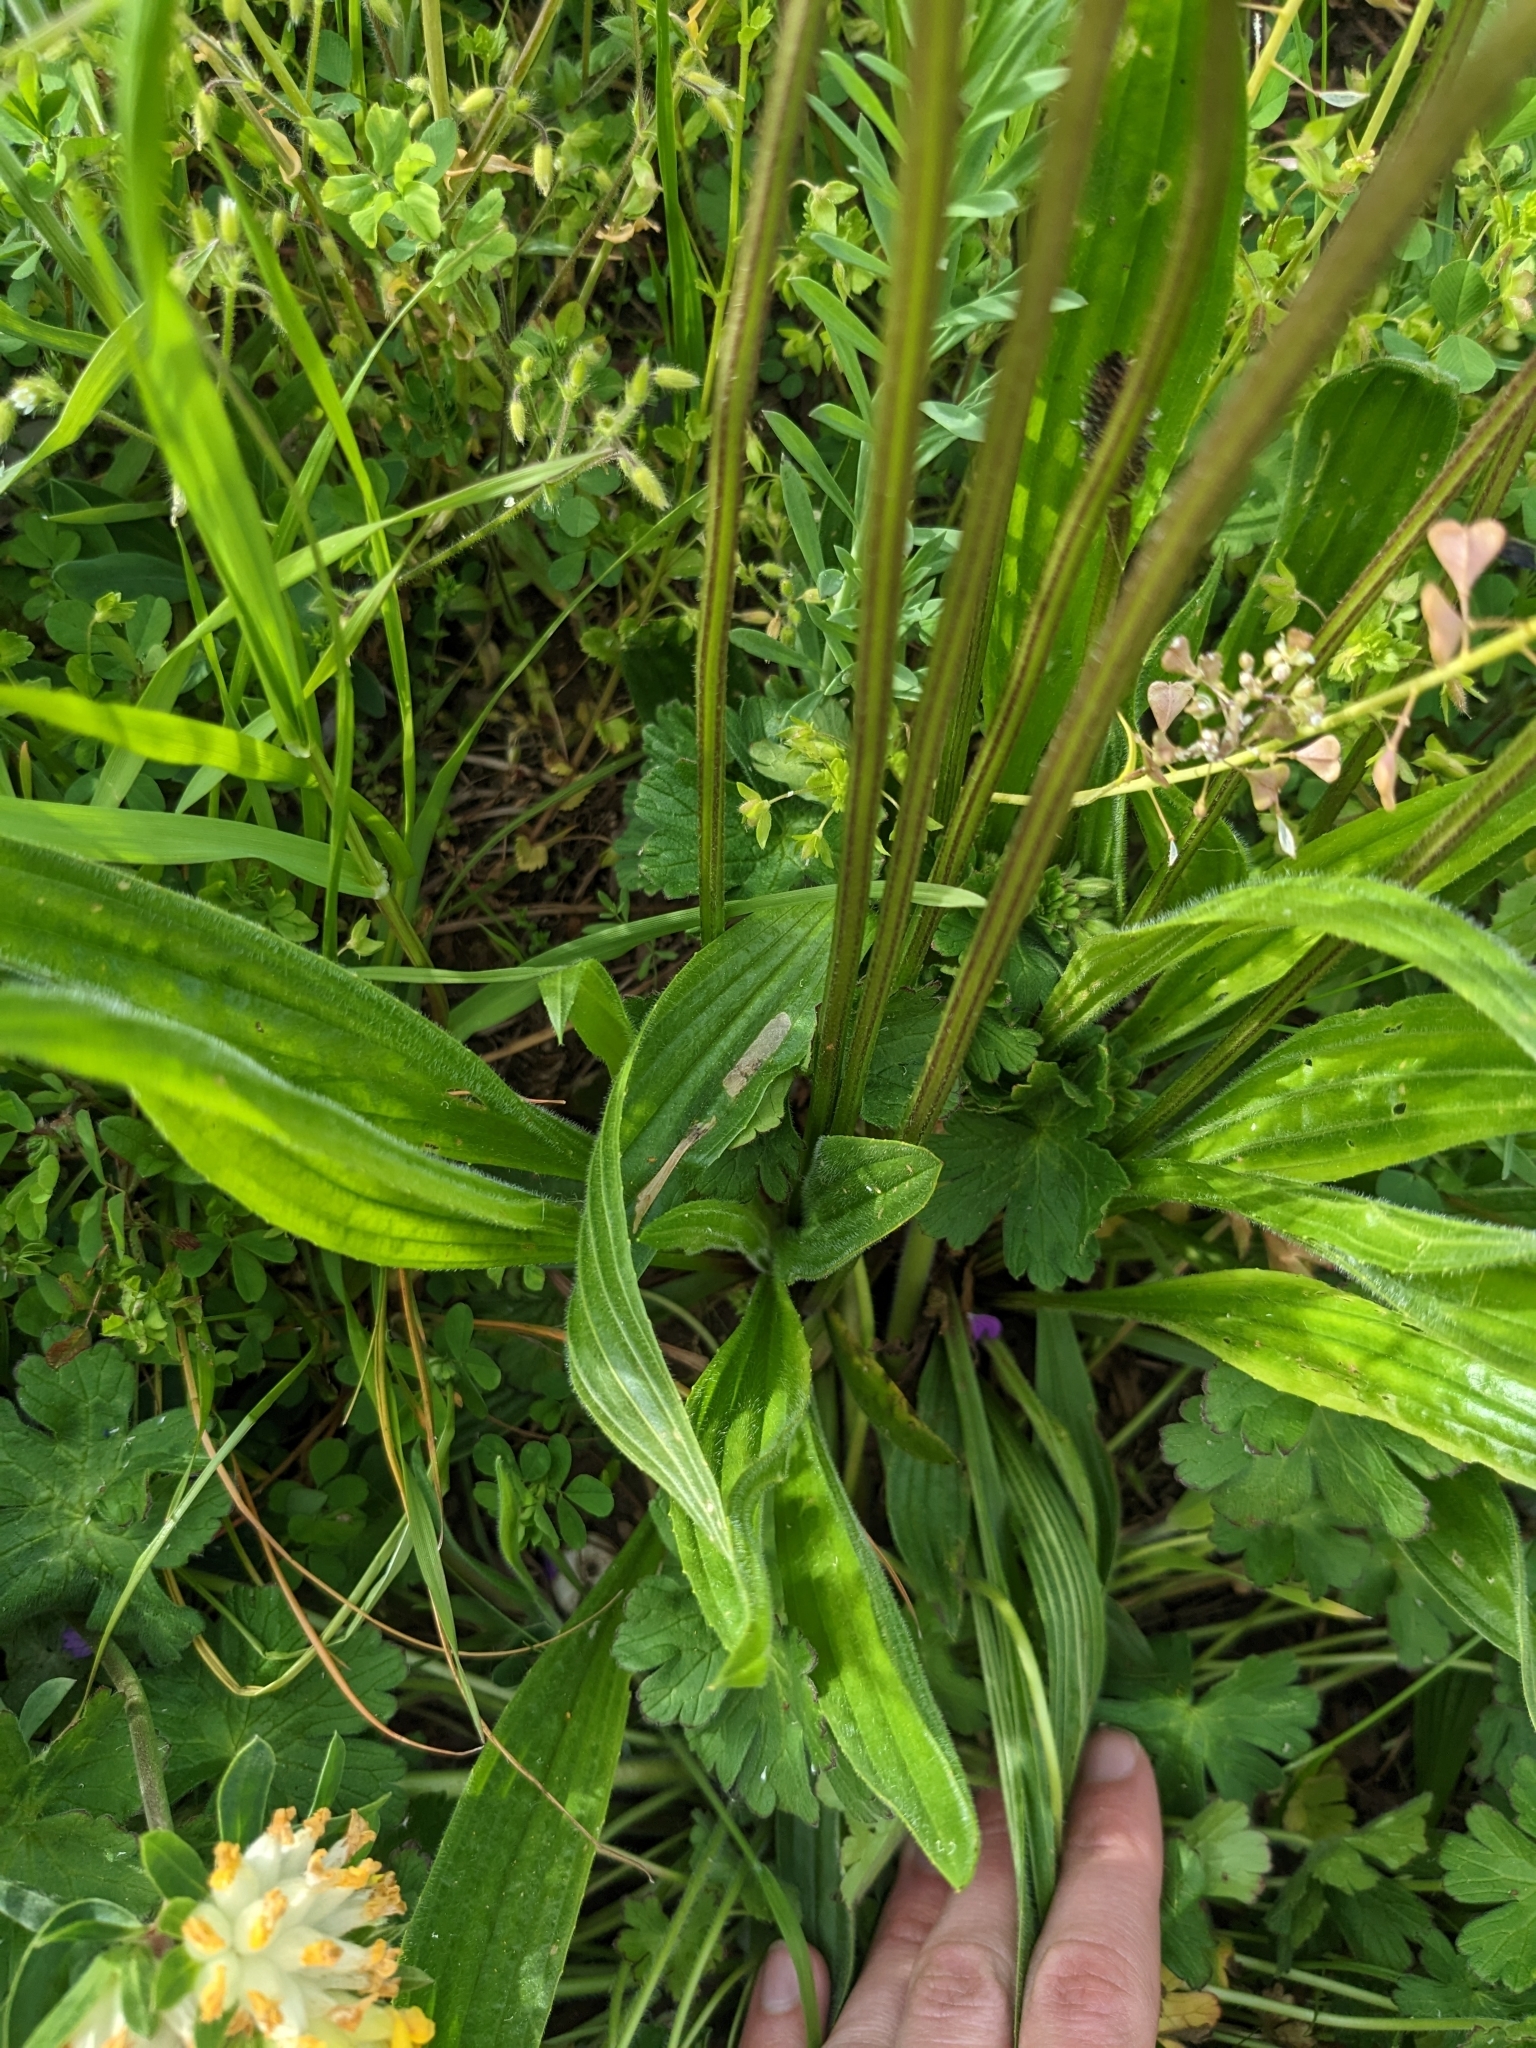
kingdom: Plantae
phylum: Tracheophyta
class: Magnoliopsida
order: Lamiales
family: Plantaginaceae
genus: Plantago
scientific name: Plantago lanceolata
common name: Ribwort plantain
